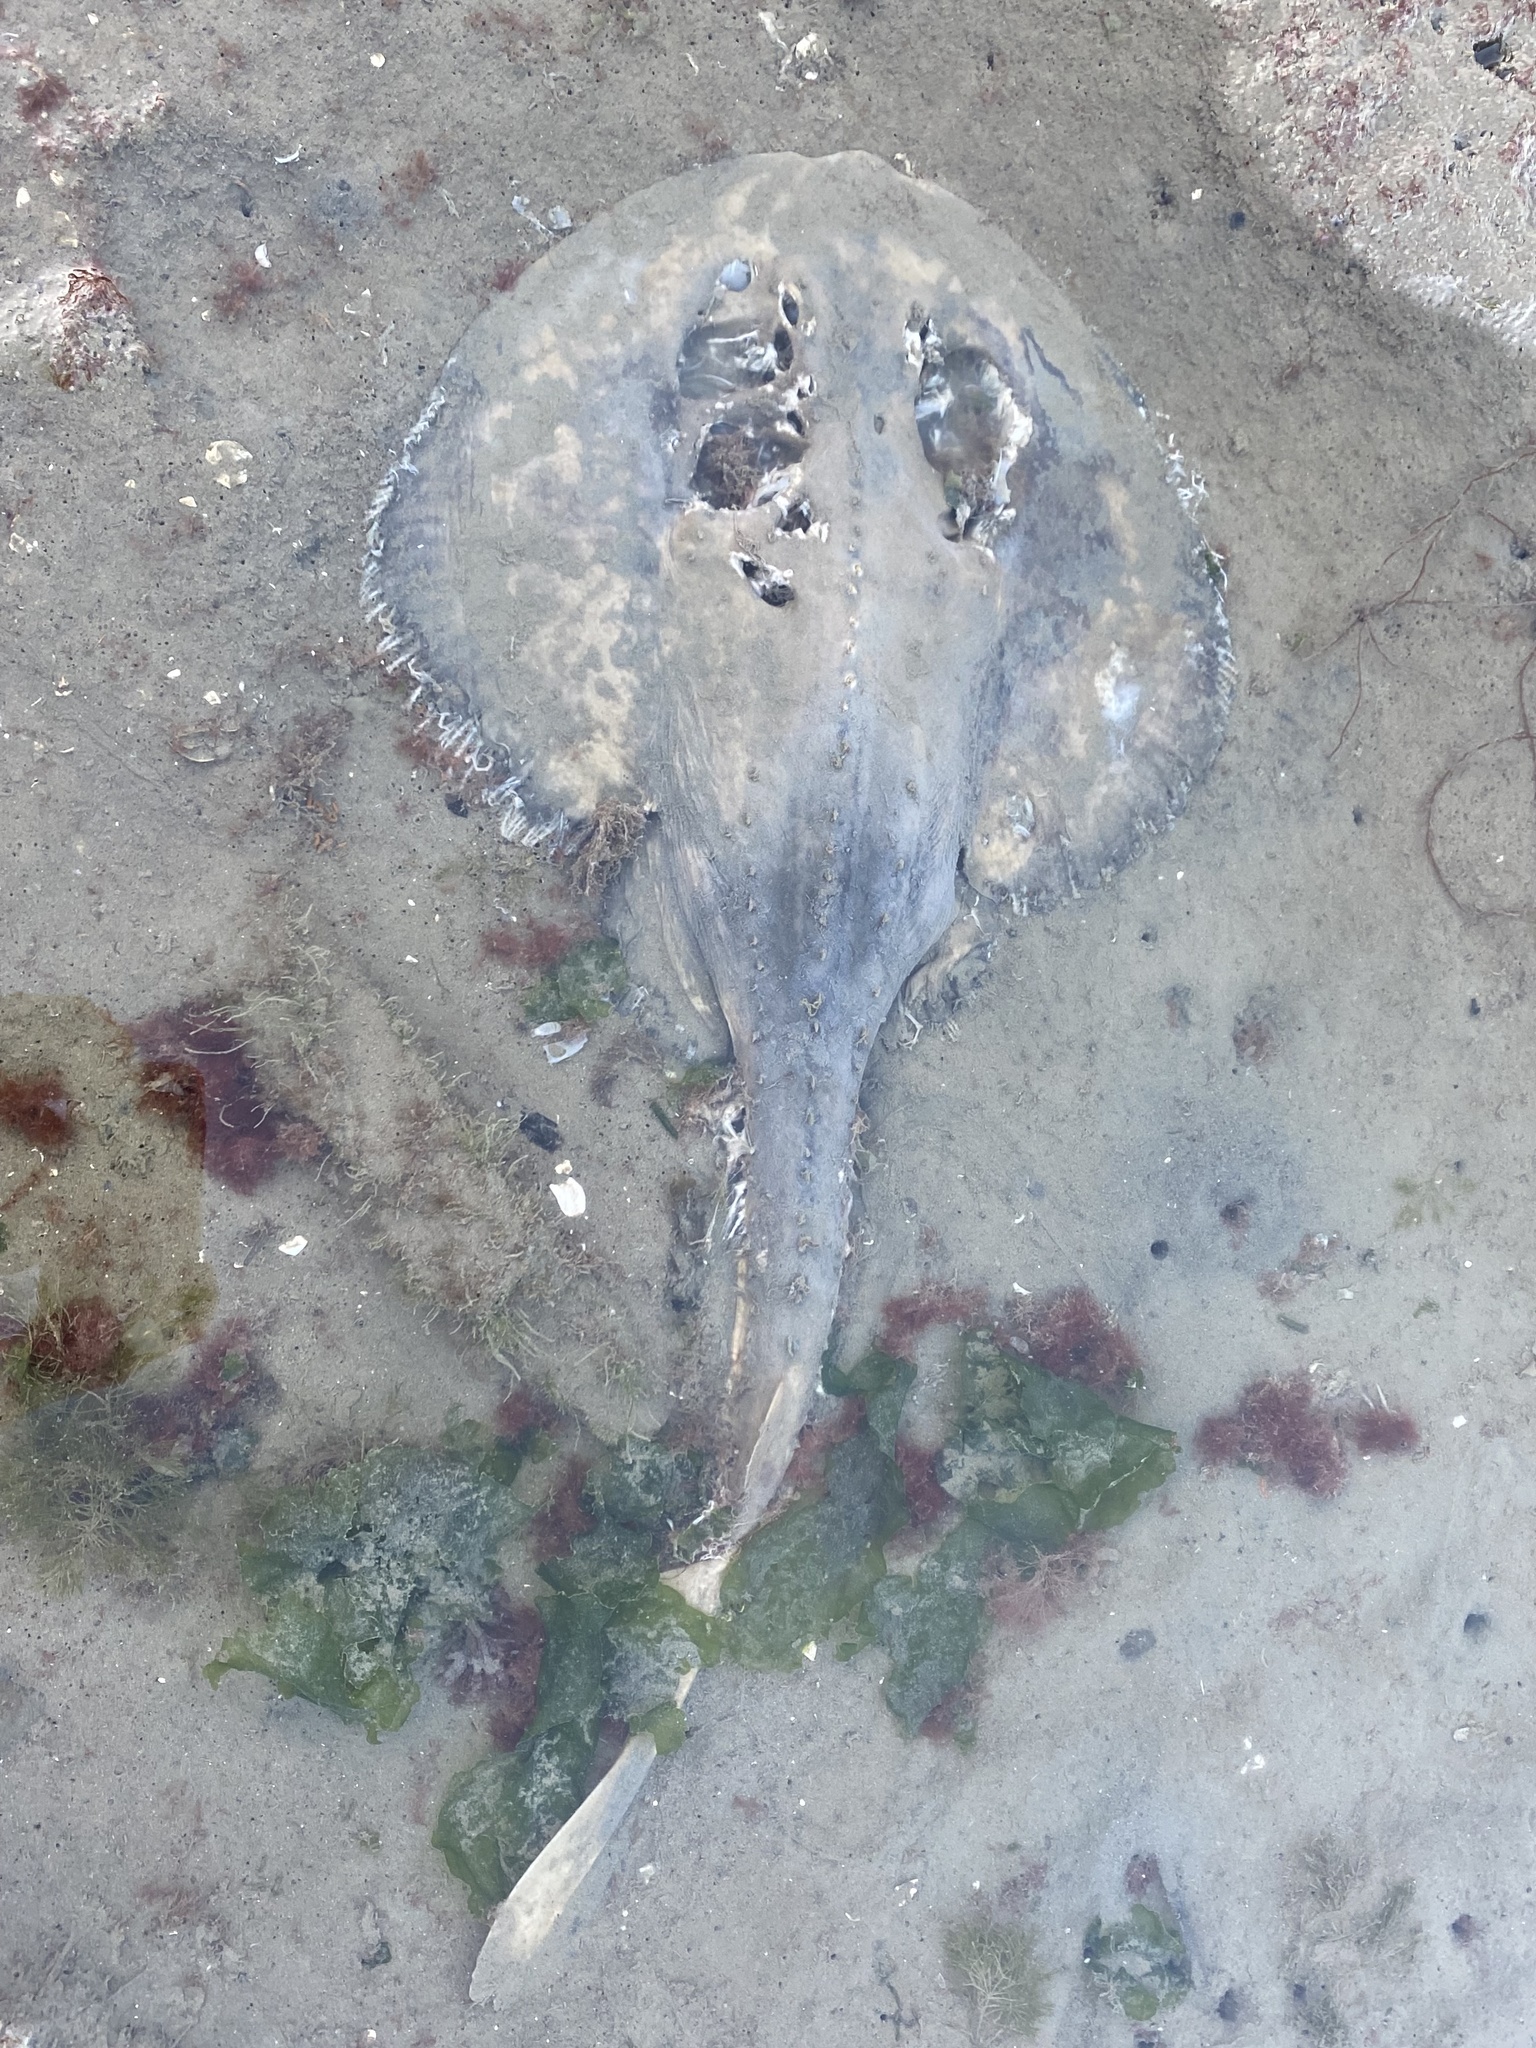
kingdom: Animalia
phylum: Chordata
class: Elasmobranchii
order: Rhinopristiformes
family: Rhinobatidae
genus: Platyrhinoidis
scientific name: Platyrhinoidis triseriata
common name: Thornback
